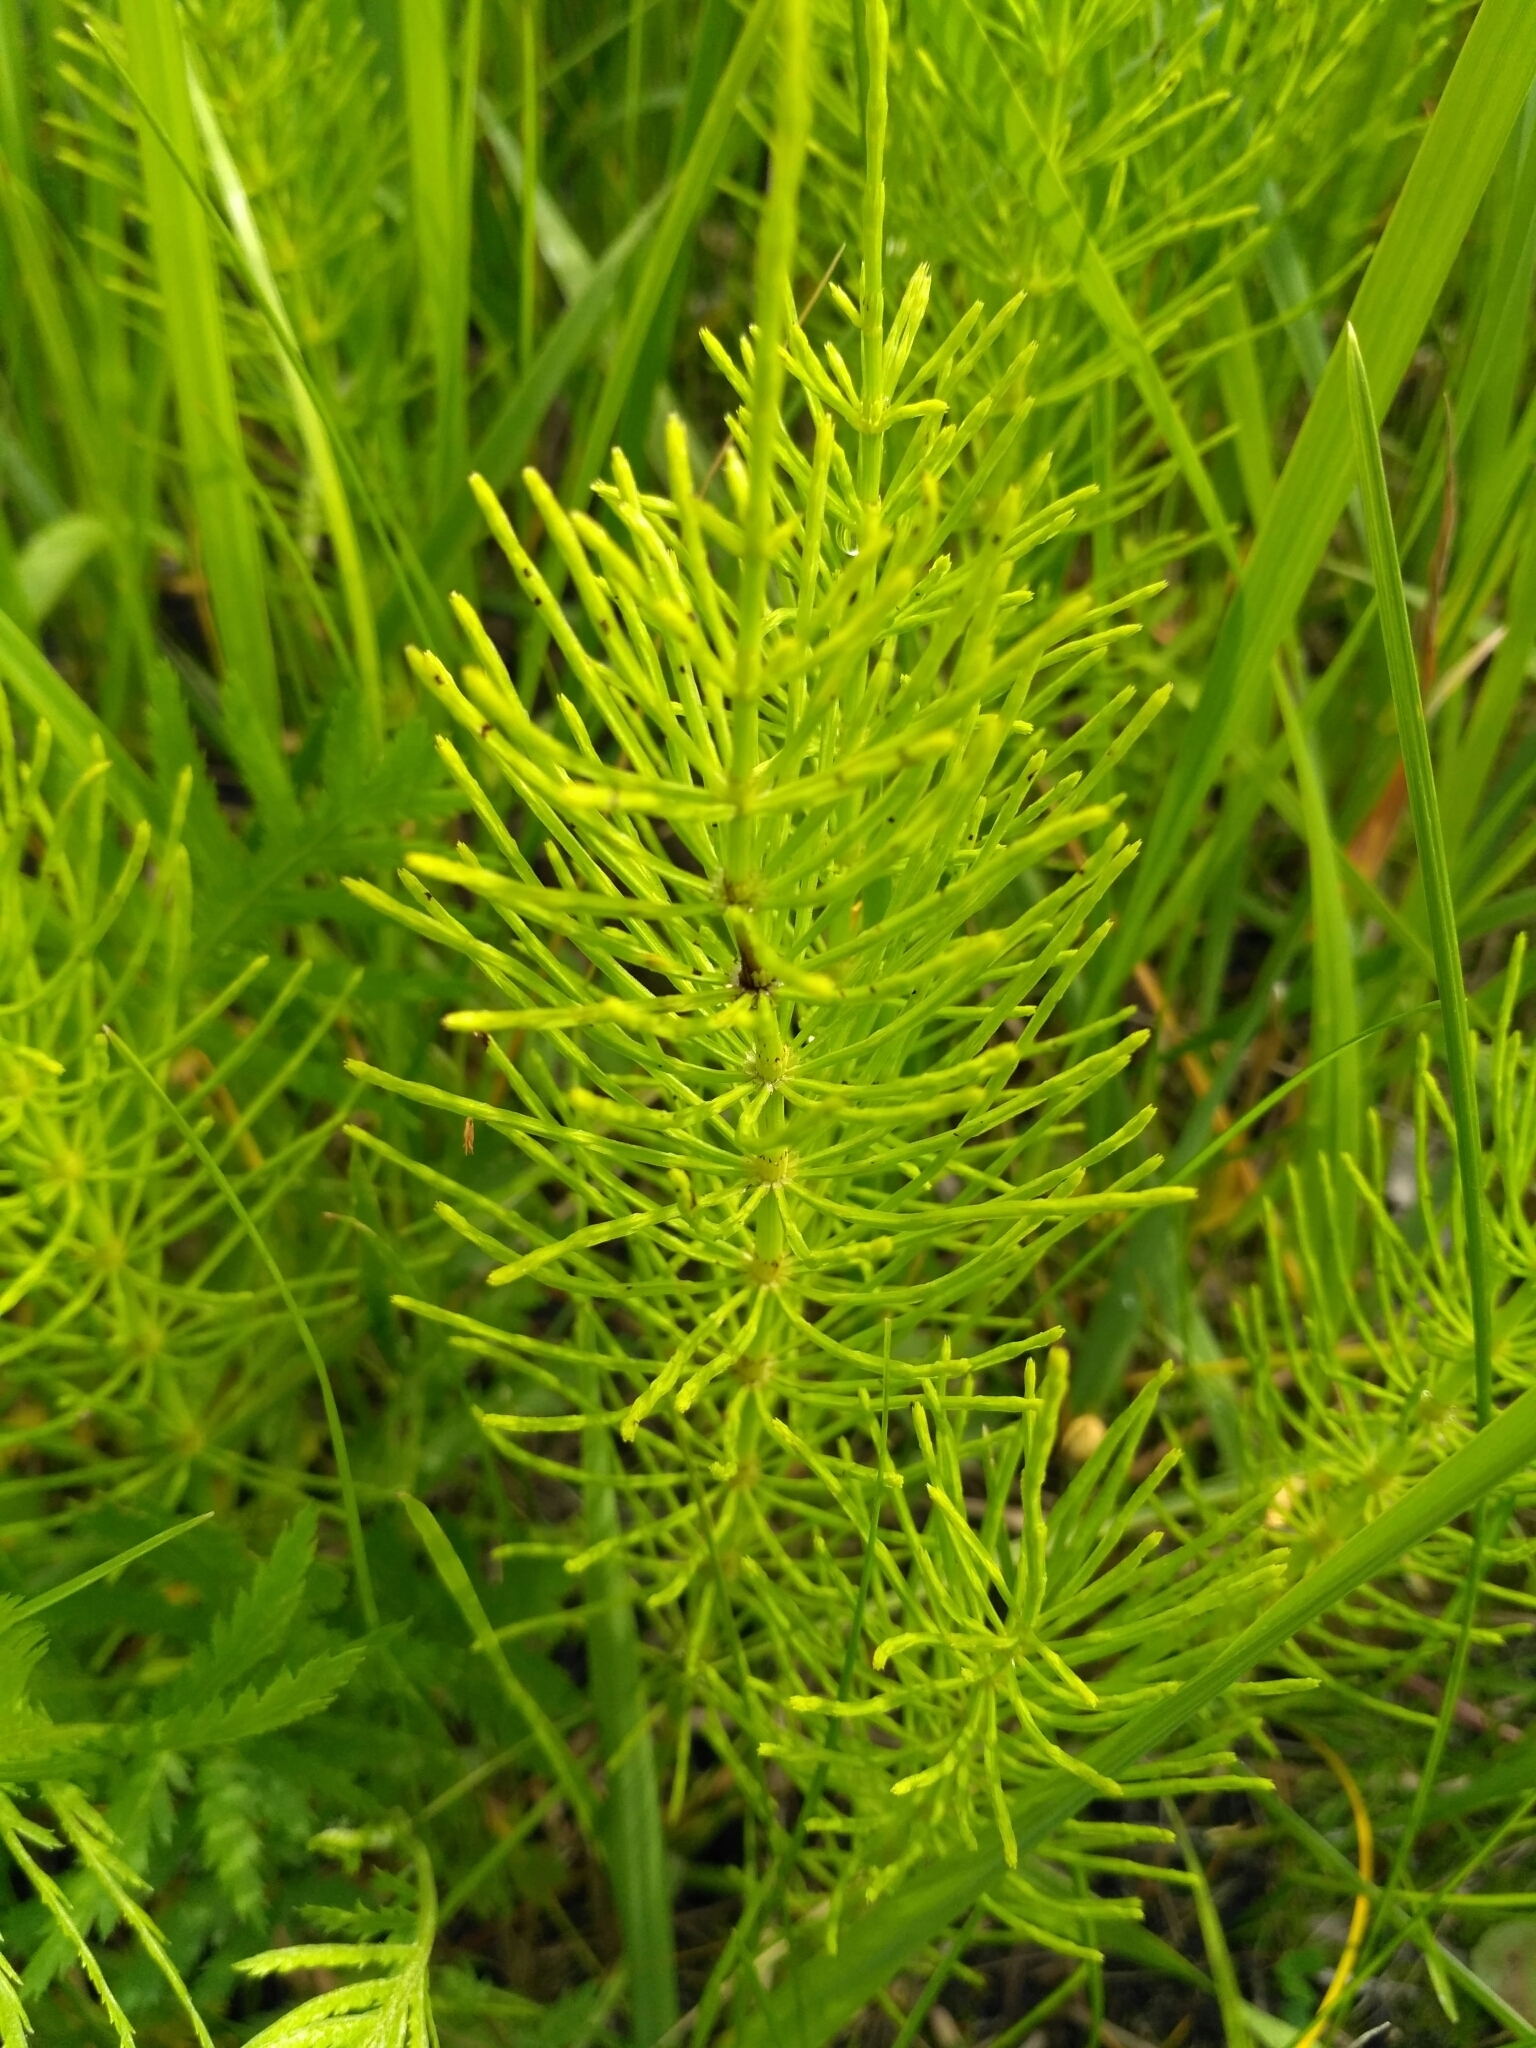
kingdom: Plantae
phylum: Tracheophyta
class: Polypodiopsida
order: Equisetales
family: Equisetaceae
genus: Equisetum
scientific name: Equisetum arvense
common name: Field horsetail
